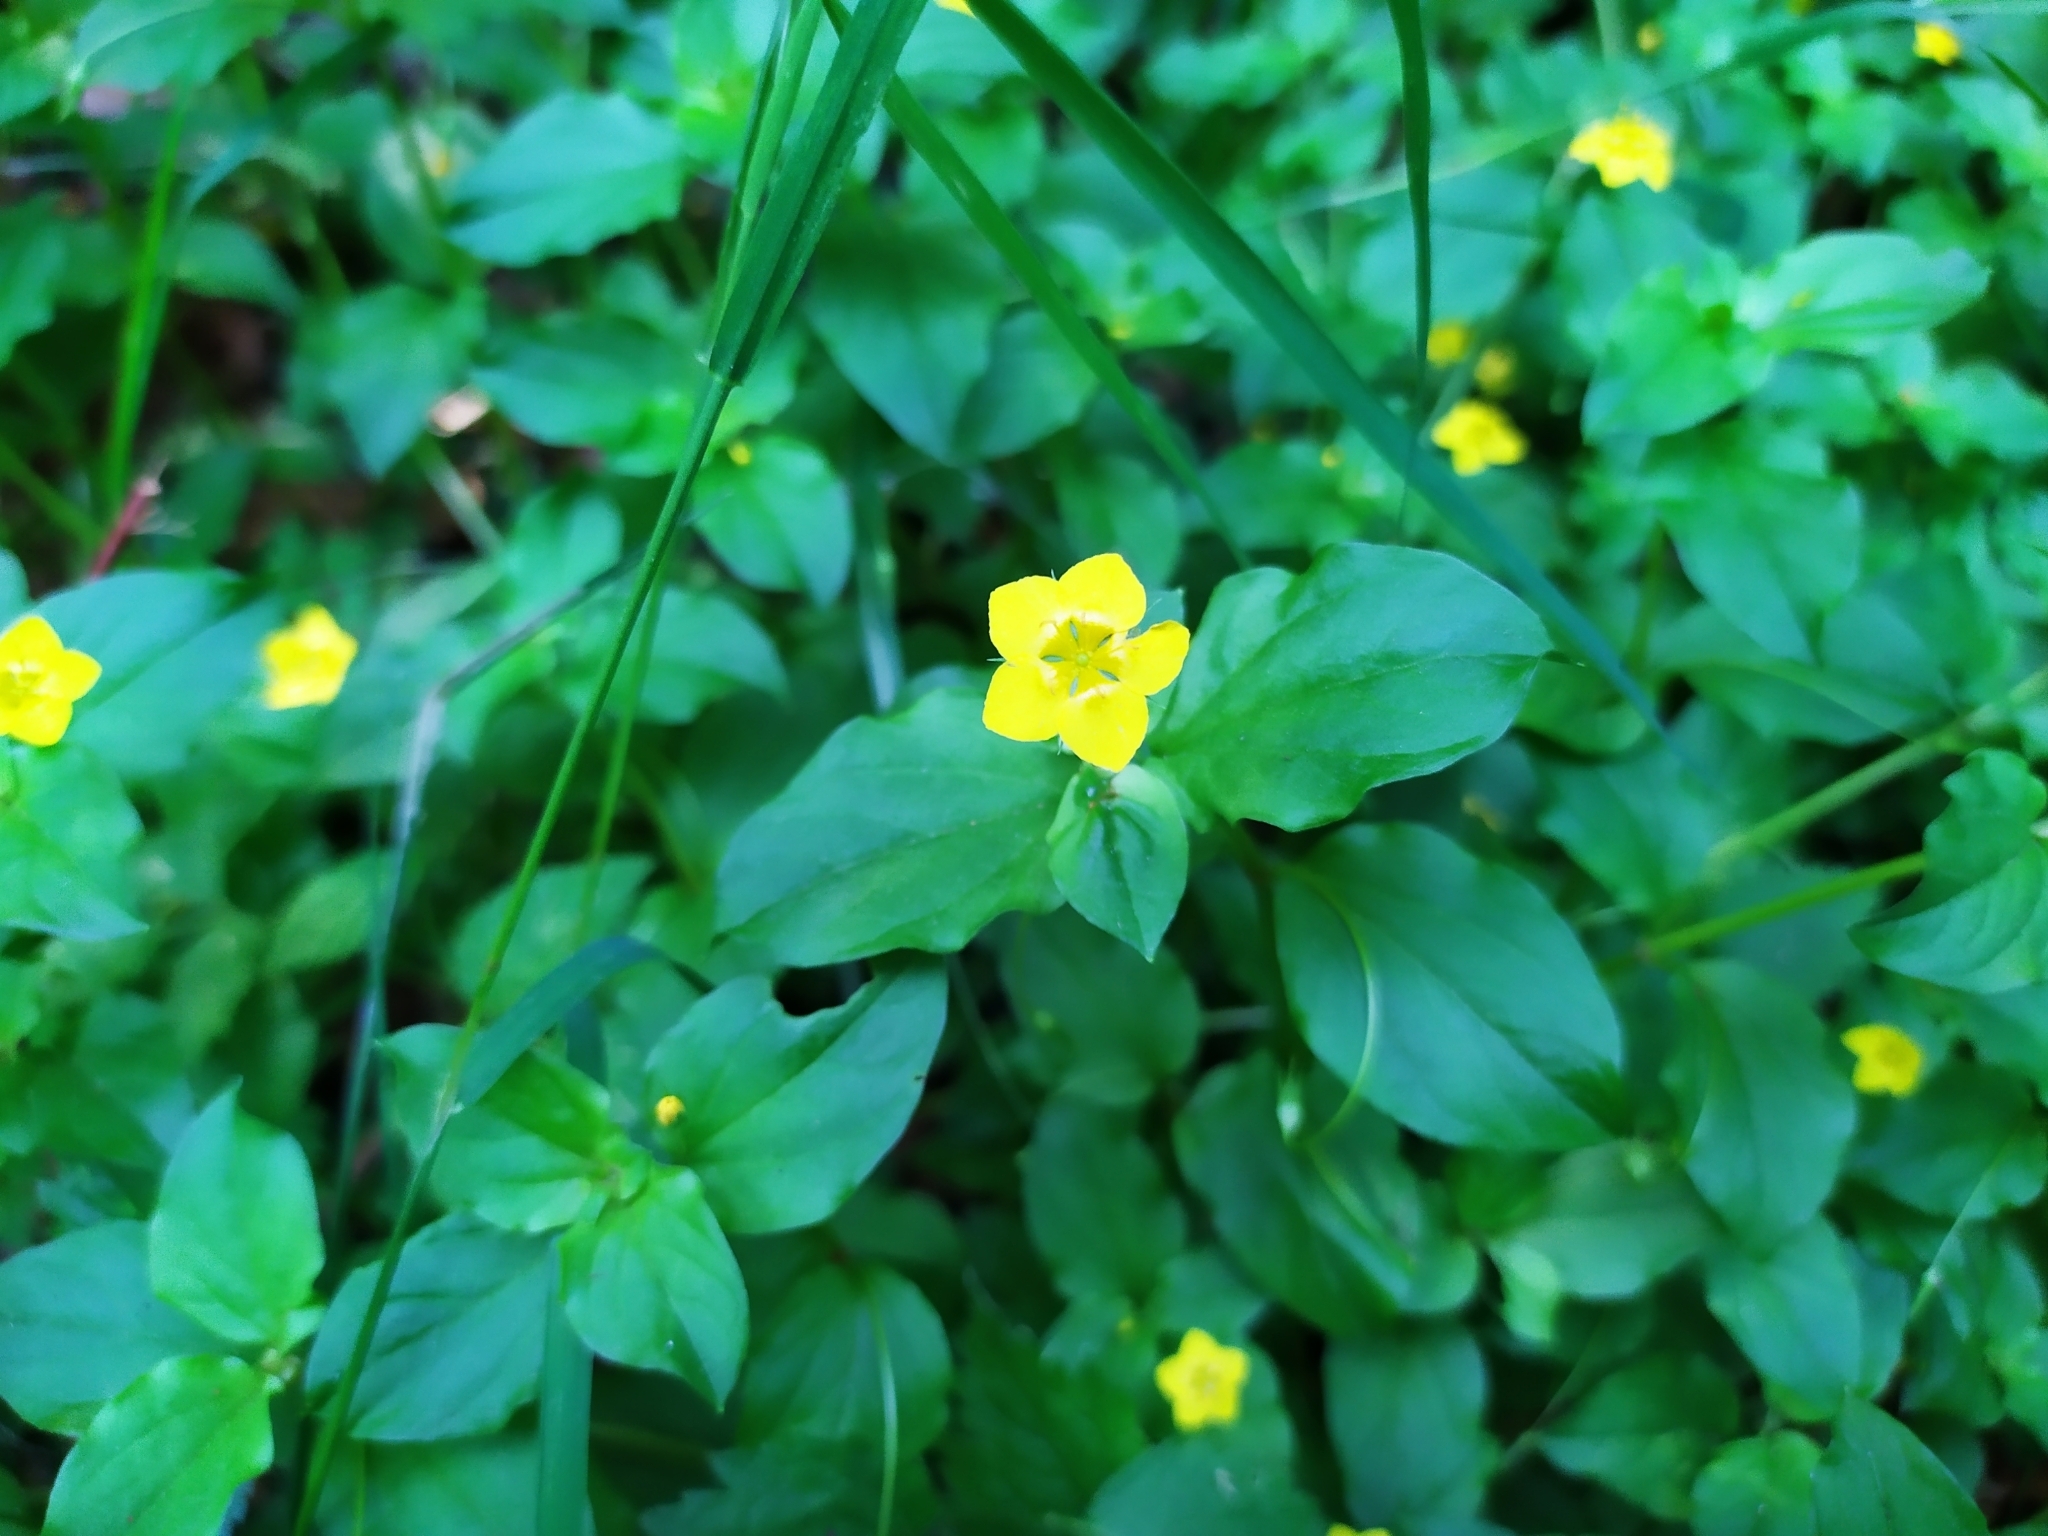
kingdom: Plantae
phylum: Tracheophyta
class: Magnoliopsida
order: Ericales
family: Primulaceae
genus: Lysimachia
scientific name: Lysimachia nemorum
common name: Yellow pimpernel
